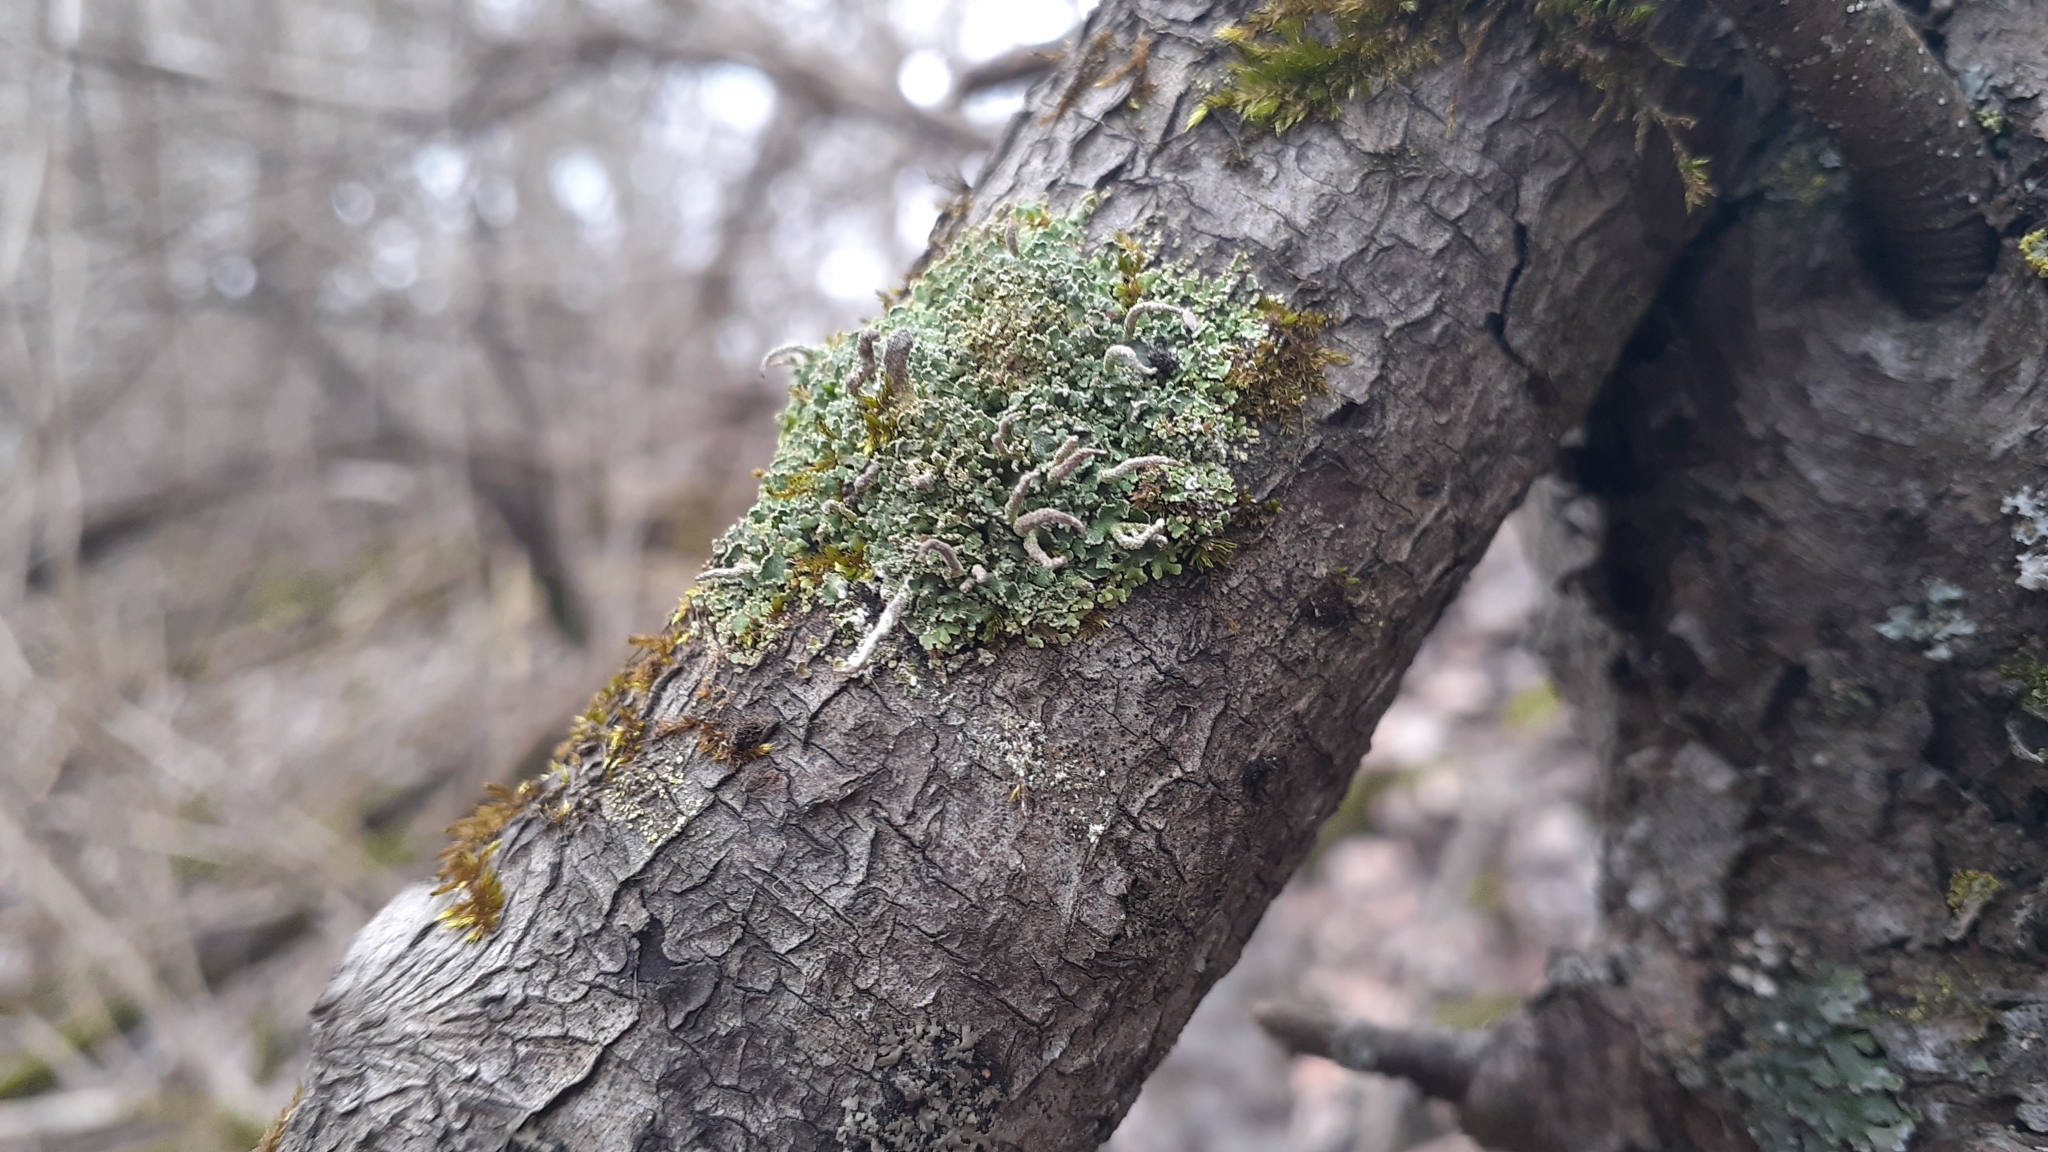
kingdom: Fungi
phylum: Ascomycota
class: Lecanoromycetes
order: Lecanorales
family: Cladoniaceae
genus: Cladonia
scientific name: Cladonia coniocraea
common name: Common powderhorn
